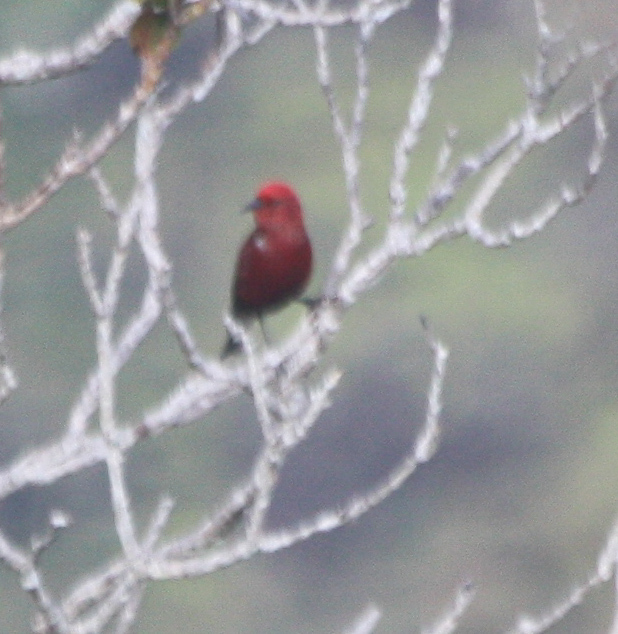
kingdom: Animalia
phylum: Chordata
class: Aves
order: Passeriformes
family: Fringillidae
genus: Himatione
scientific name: Himatione sanguinea
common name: Apapane
